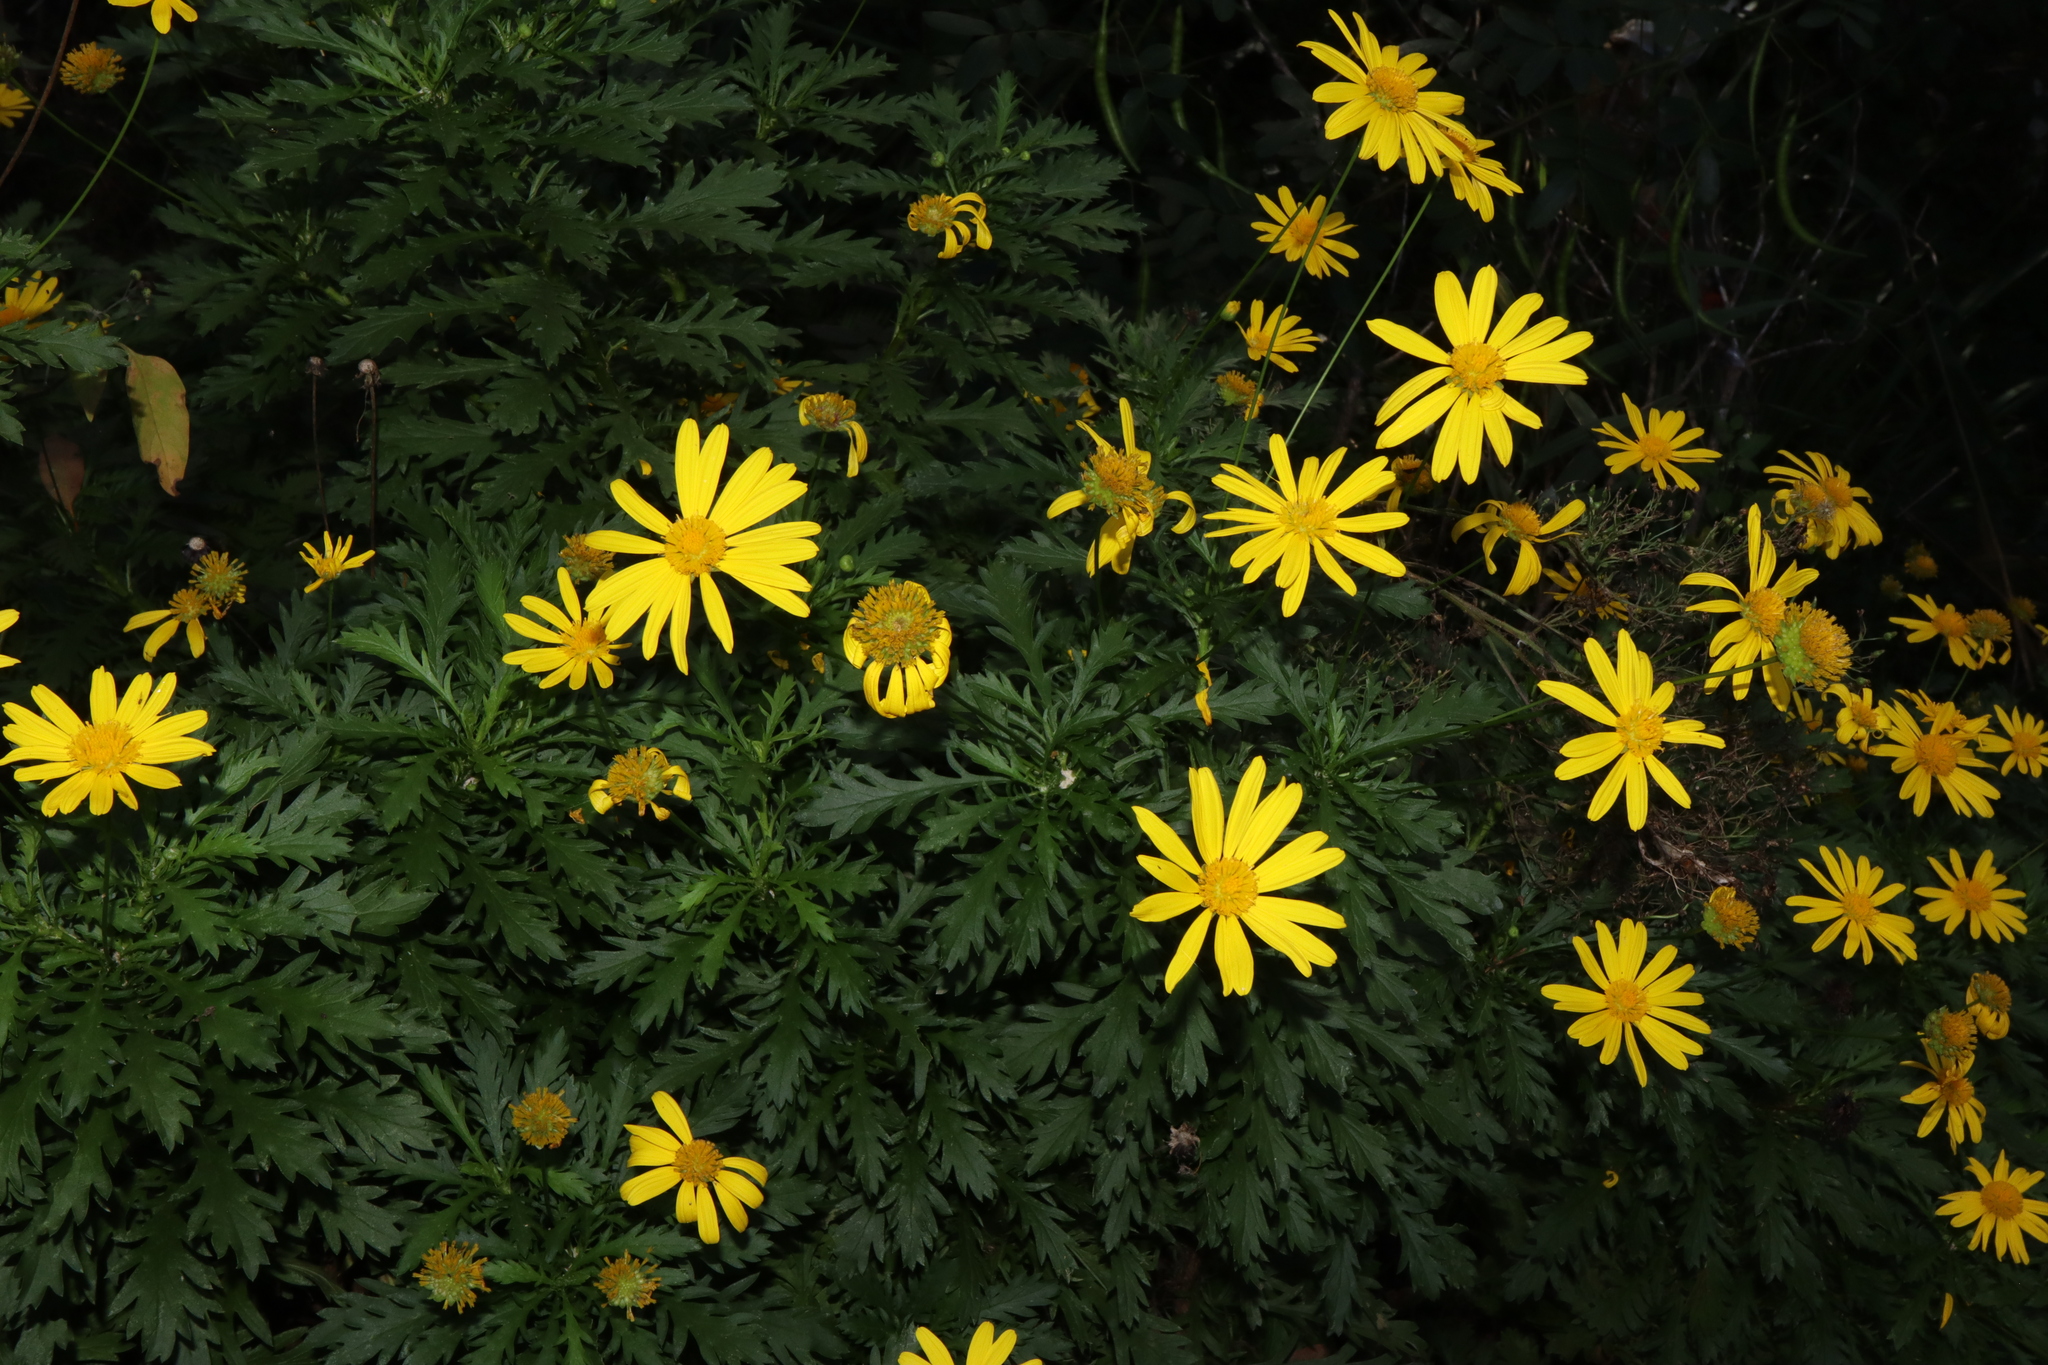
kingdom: Plantae
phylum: Tracheophyta
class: Magnoliopsida
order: Asterales
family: Asteraceae
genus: Euryops
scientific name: Euryops chrysanthemoides
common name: Bull's eye
